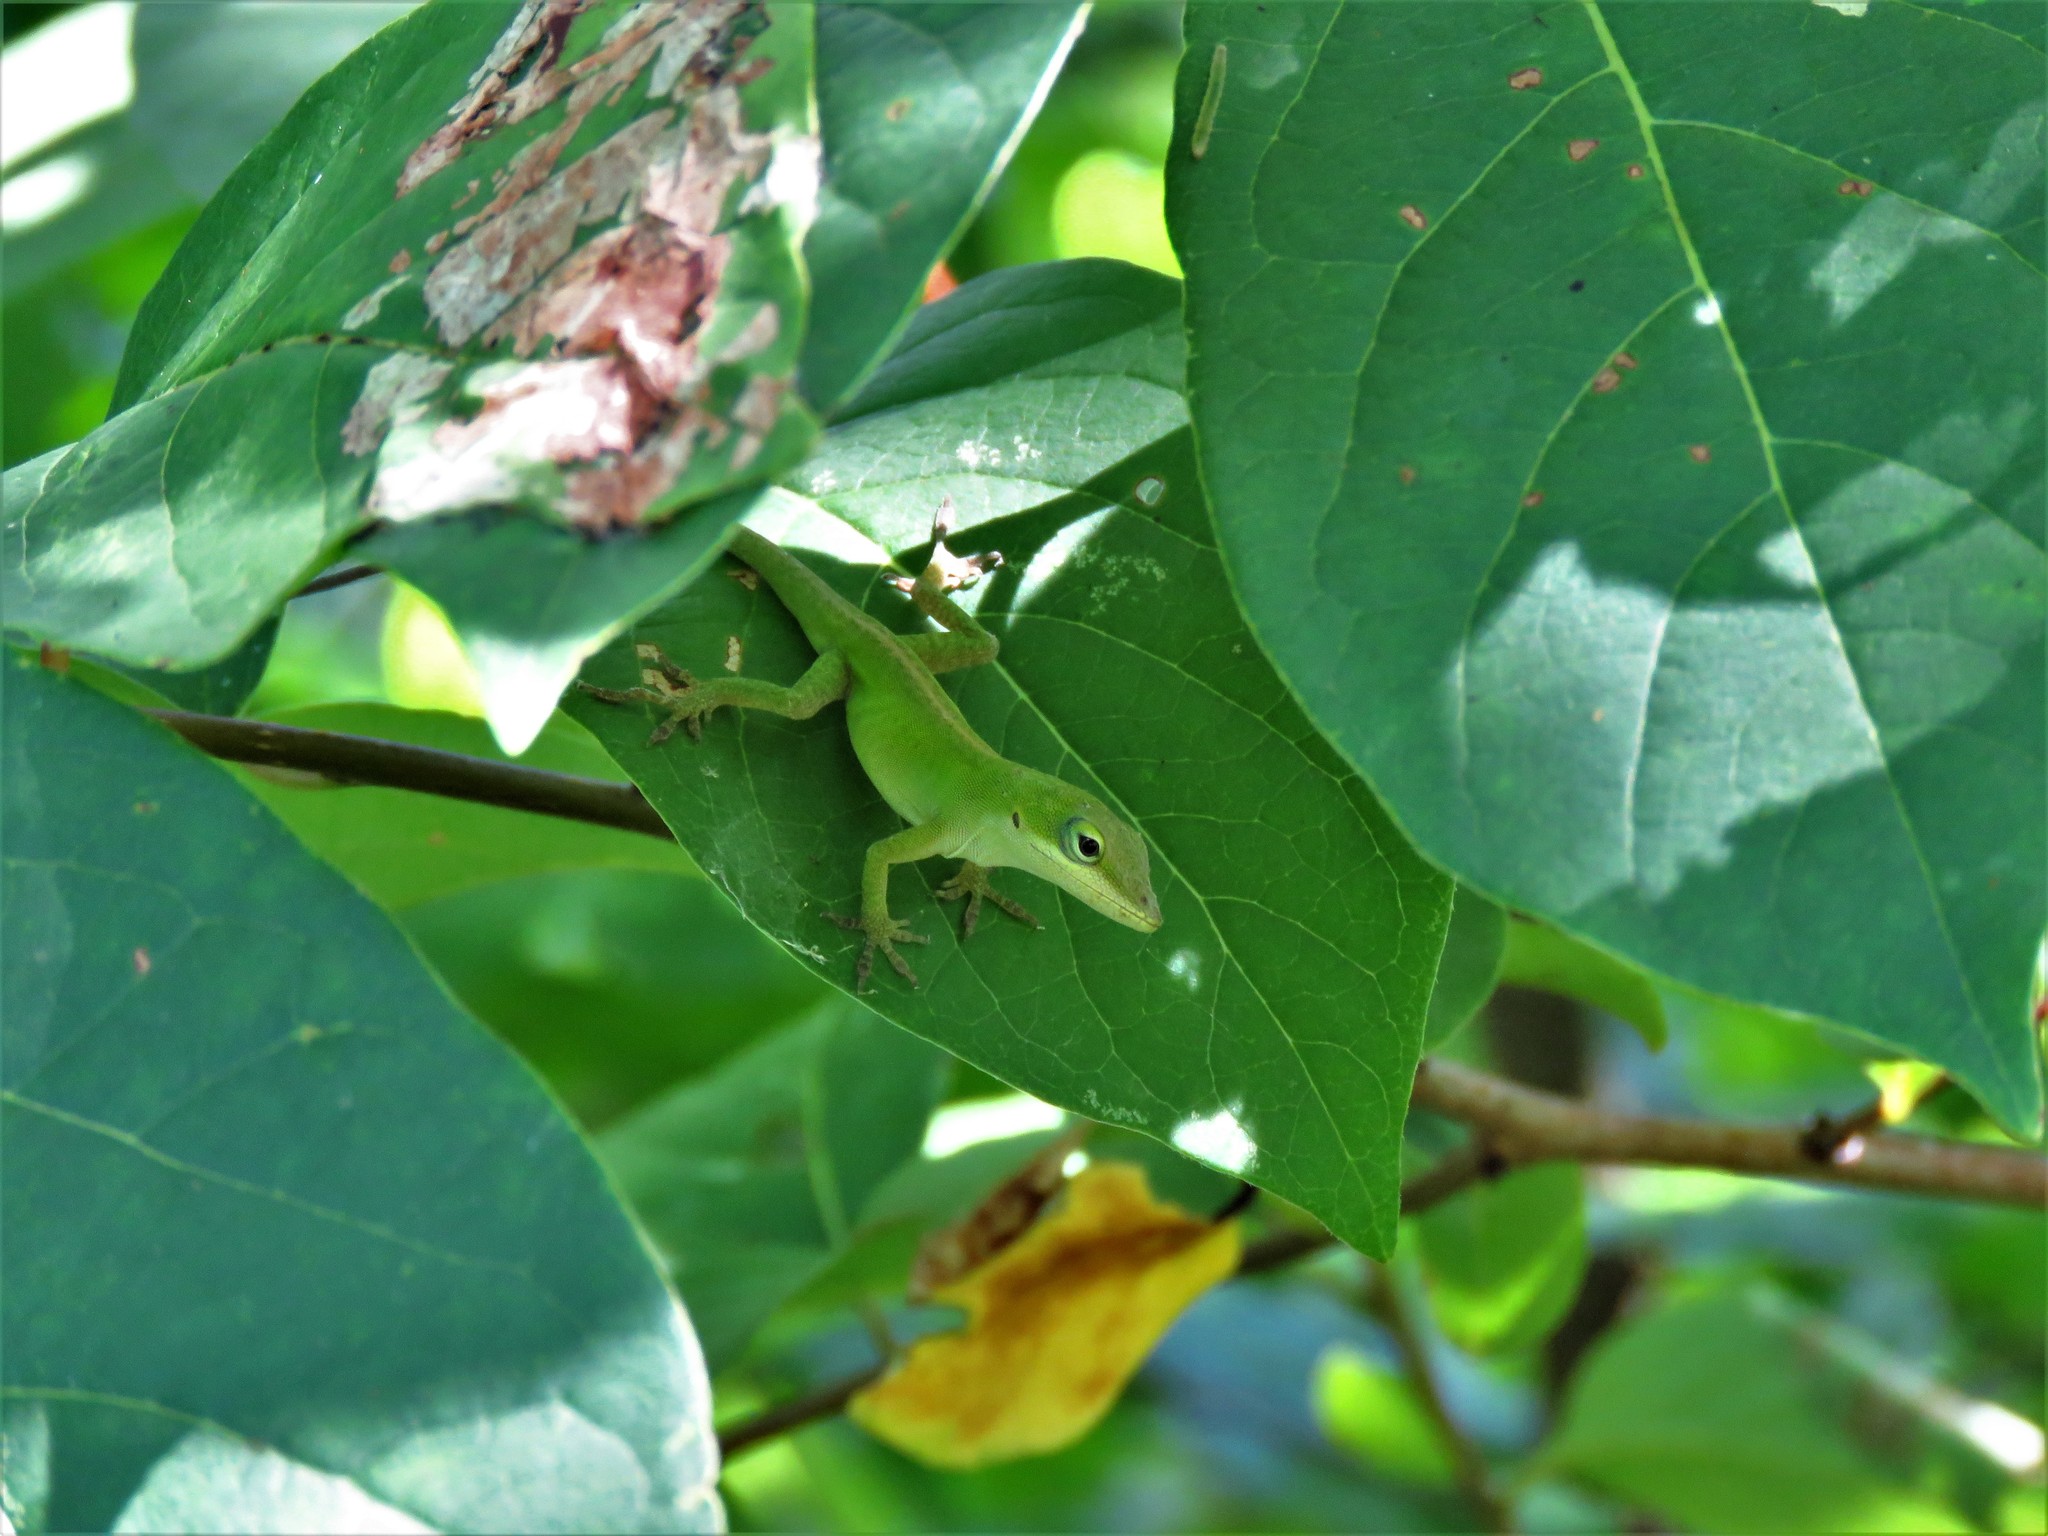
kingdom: Animalia
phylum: Chordata
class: Squamata
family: Dactyloidae
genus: Anolis
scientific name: Anolis carolinensis
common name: Green anole
